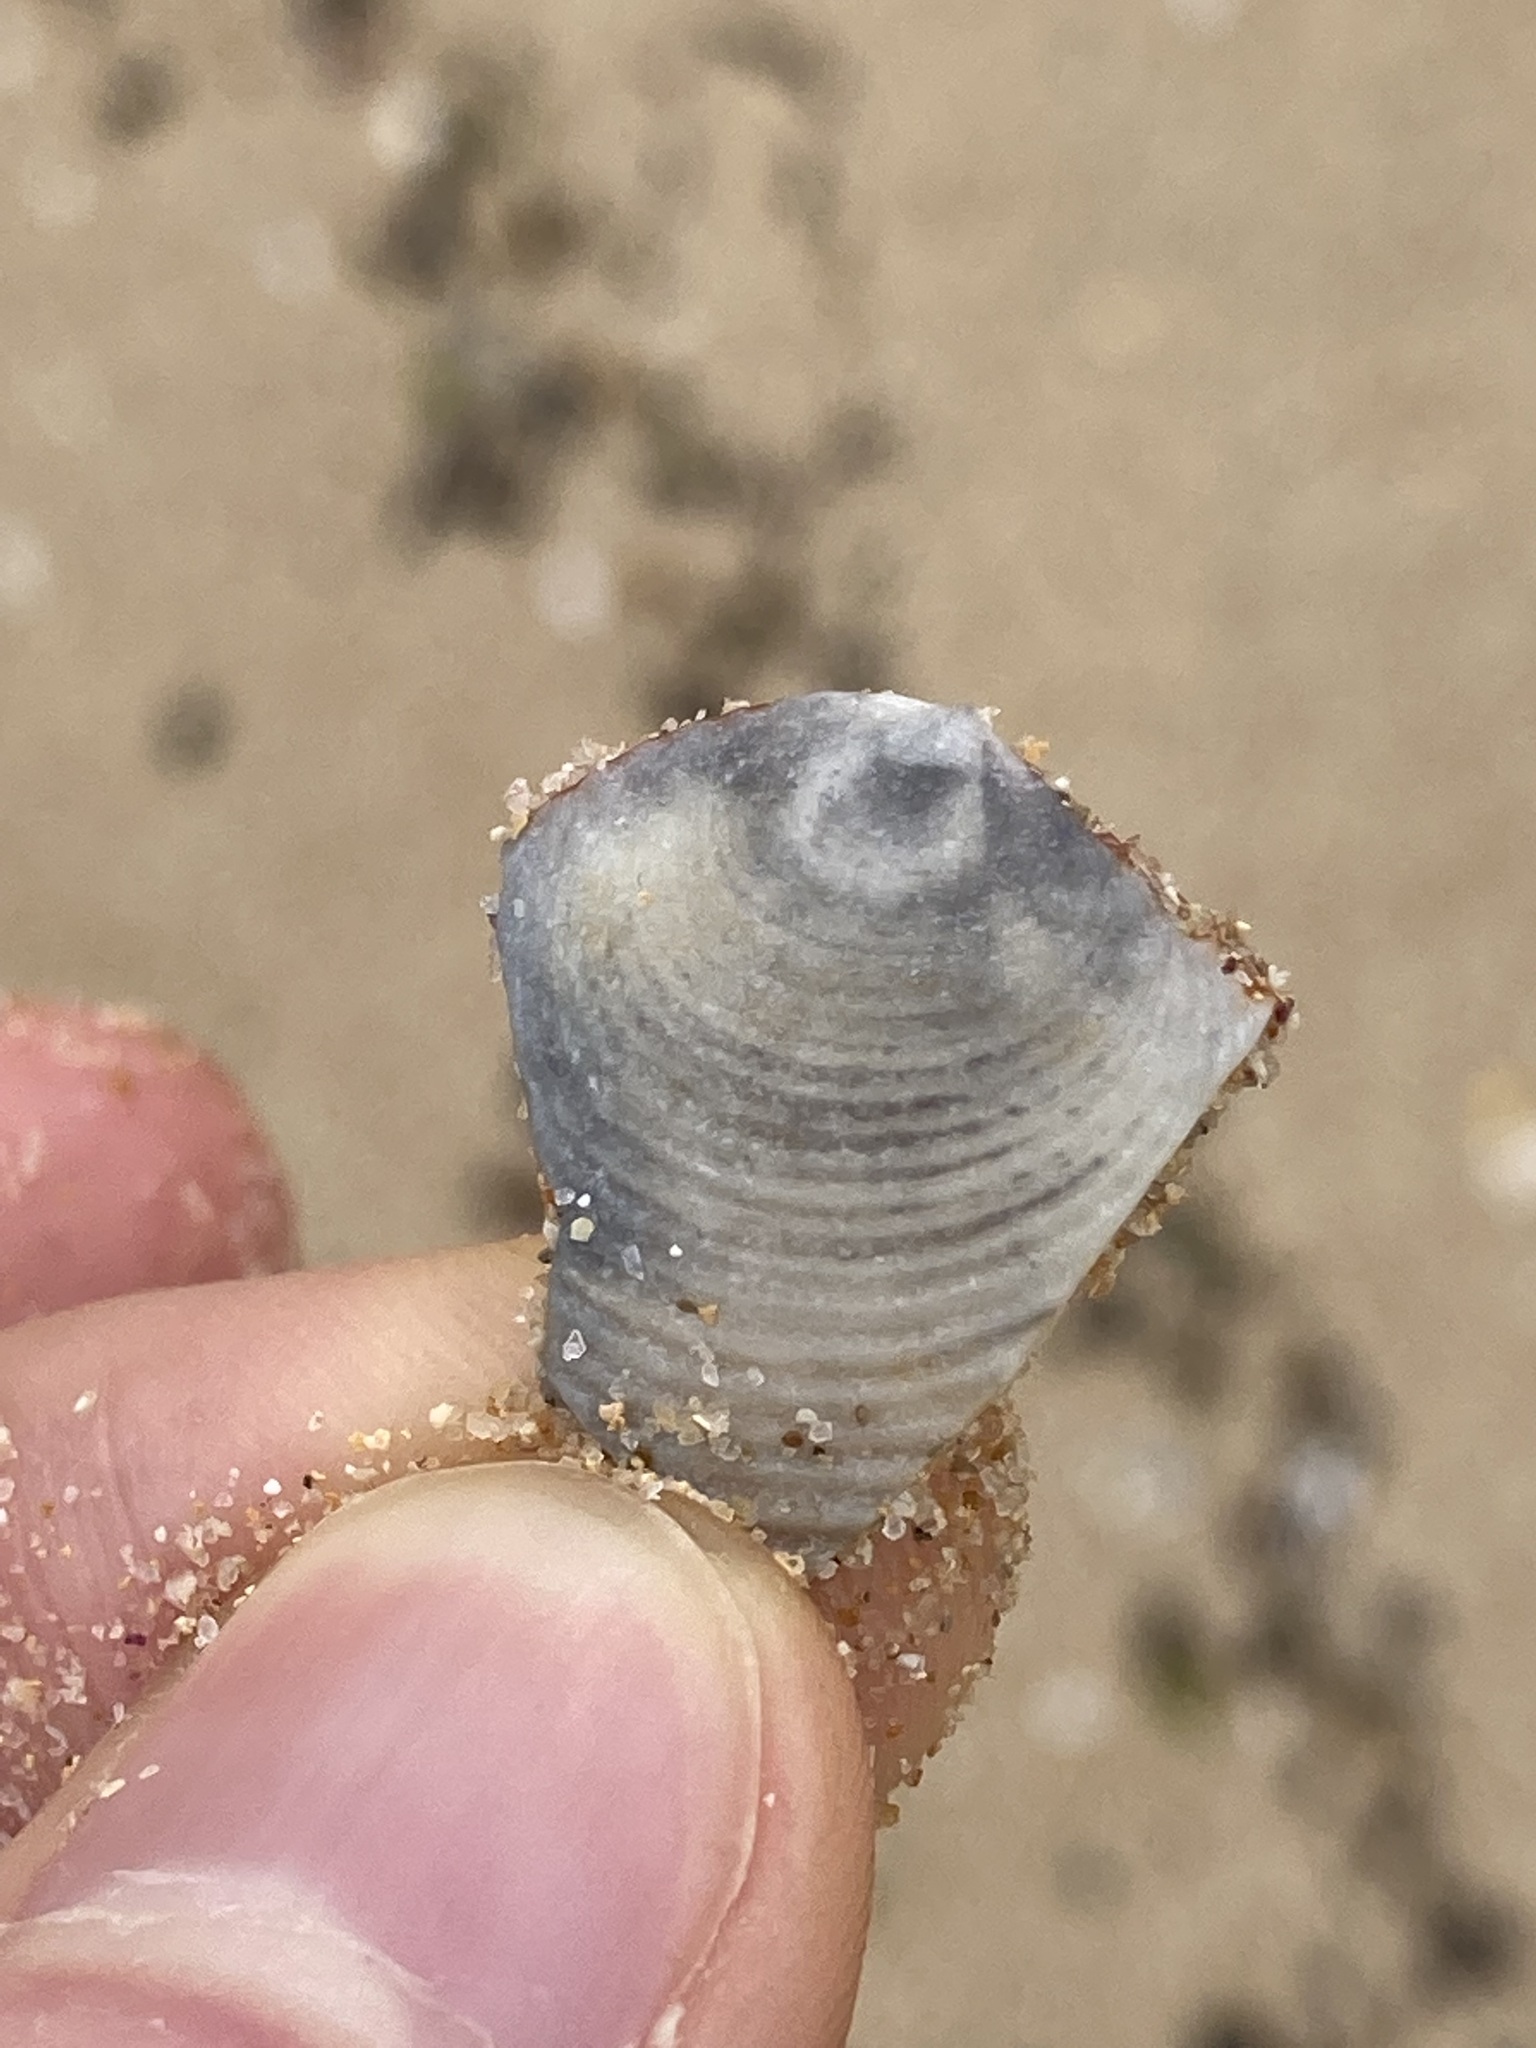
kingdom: Animalia
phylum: Mollusca
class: Bivalvia
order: Venerida
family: Veneridae
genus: Circe
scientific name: Circe scripta
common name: Script venus
